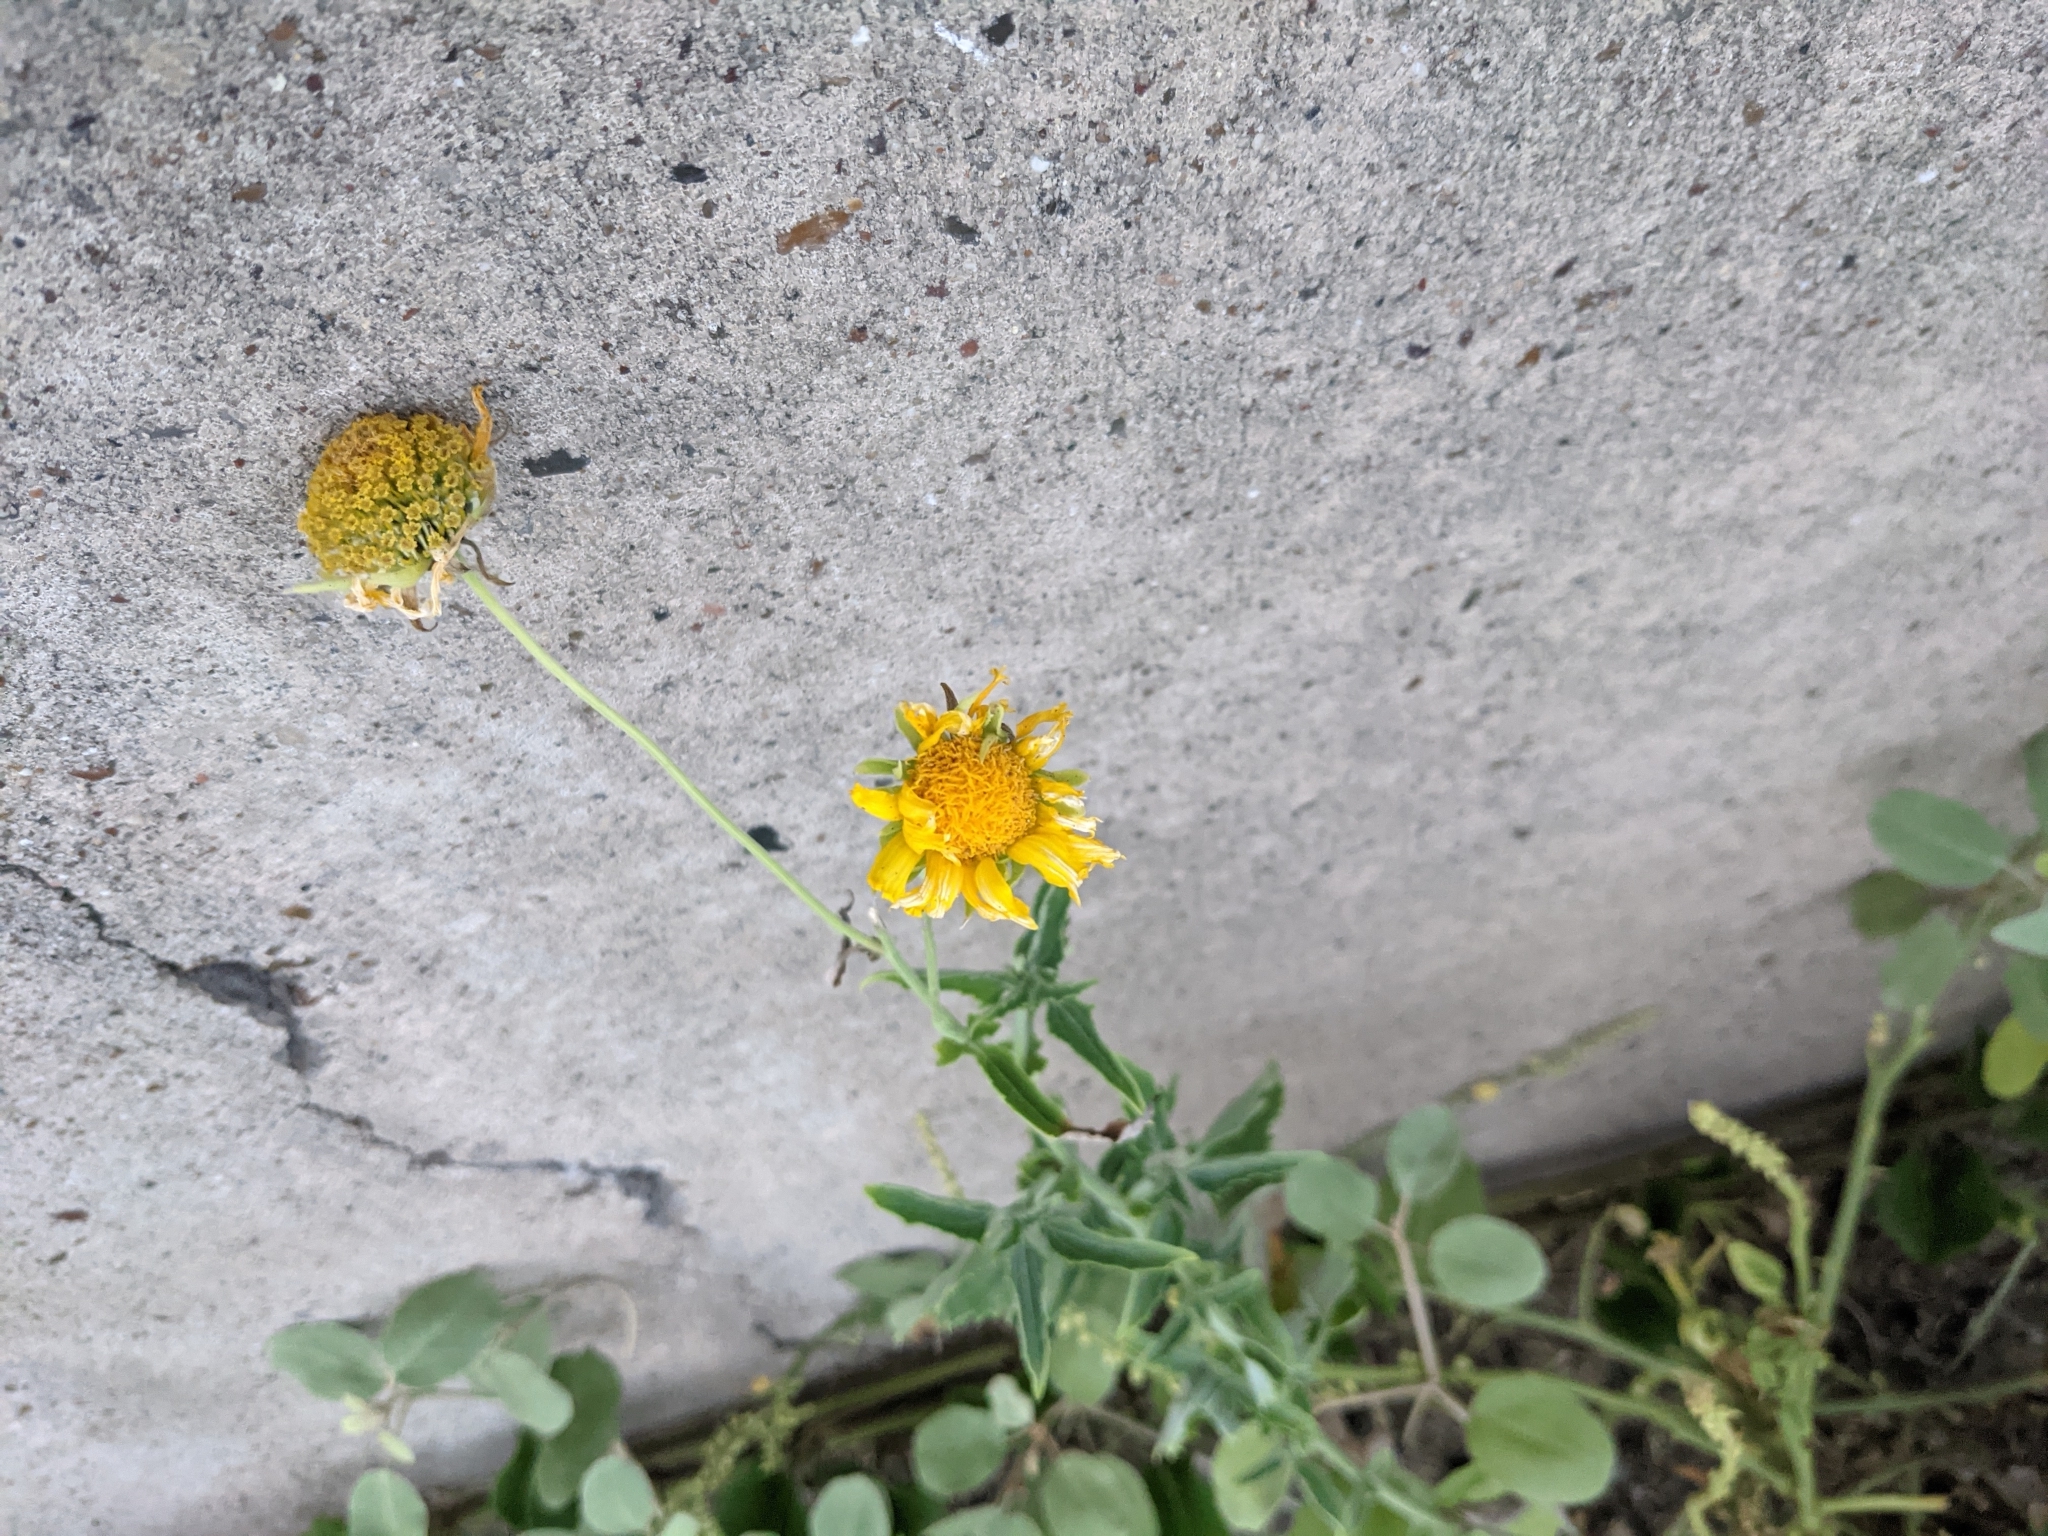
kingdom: Plantae
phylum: Tracheophyta
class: Magnoliopsida
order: Asterales
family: Asteraceae
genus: Verbesina
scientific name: Verbesina encelioides
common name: Golden crownbeard
